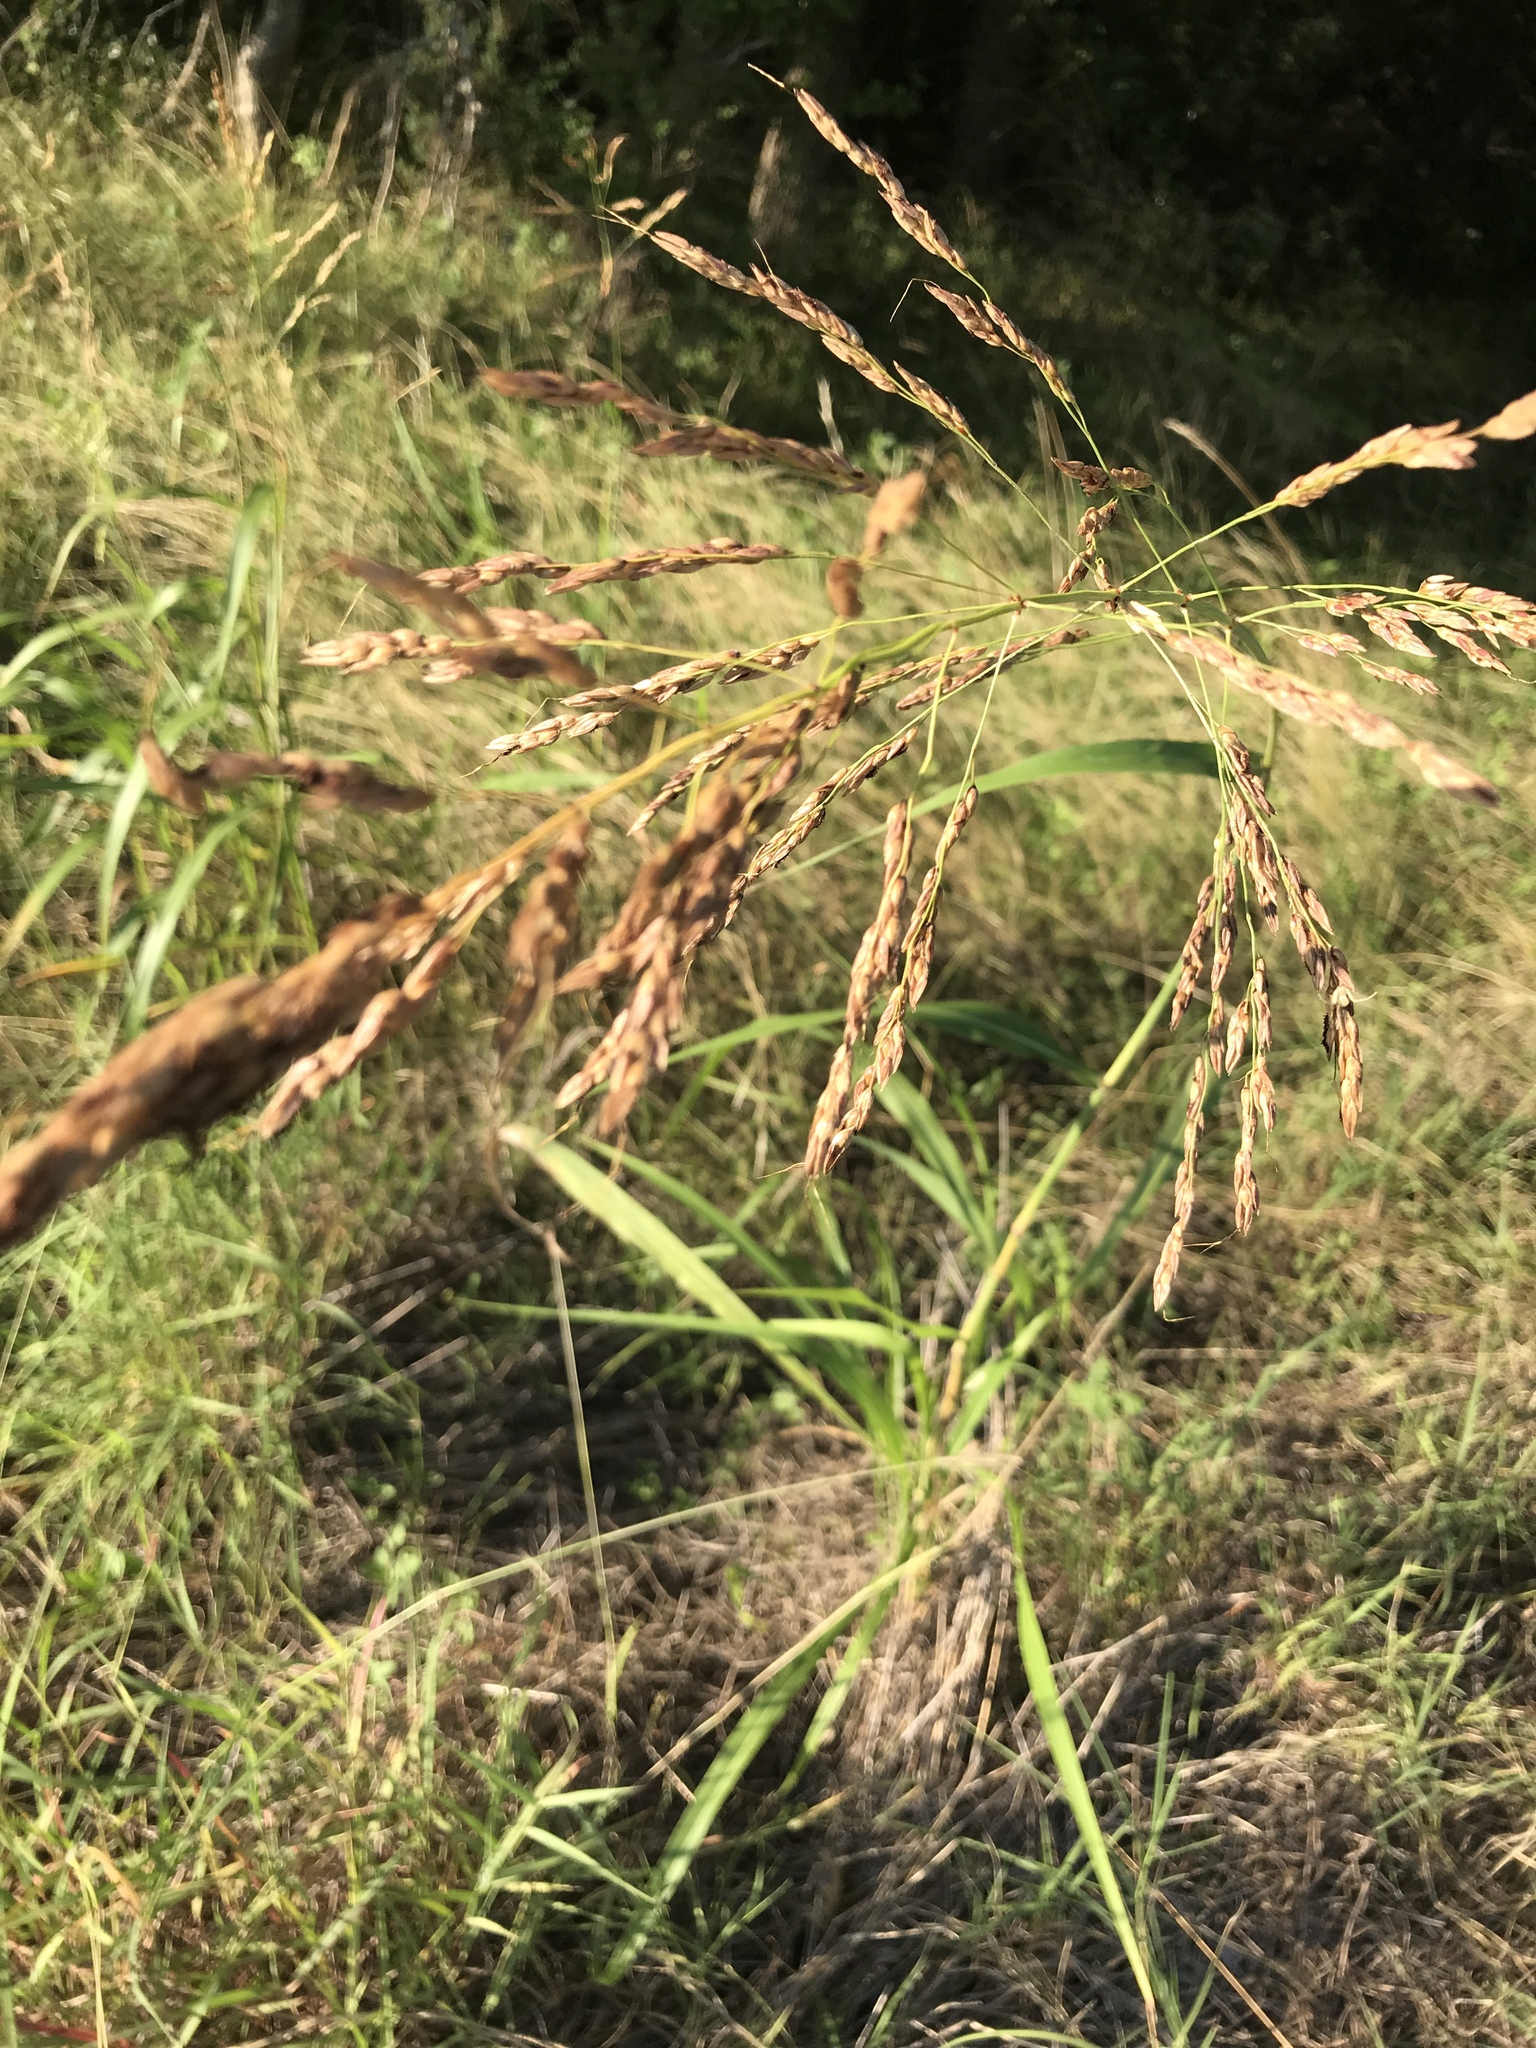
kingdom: Plantae
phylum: Tracheophyta
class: Liliopsida
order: Poales
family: Poaceae
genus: Sorghum
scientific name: Sorghum halepense
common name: Johnson-grass
